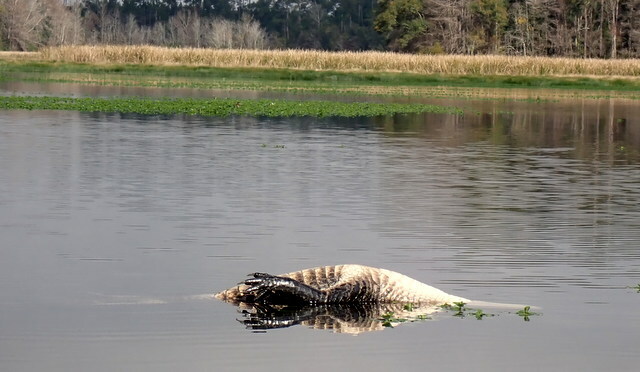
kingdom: Animalia
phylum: Chordata
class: Crocodylia
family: Alligatoridae
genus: Alligator
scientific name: Alligator mississippiensis
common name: American alligator
